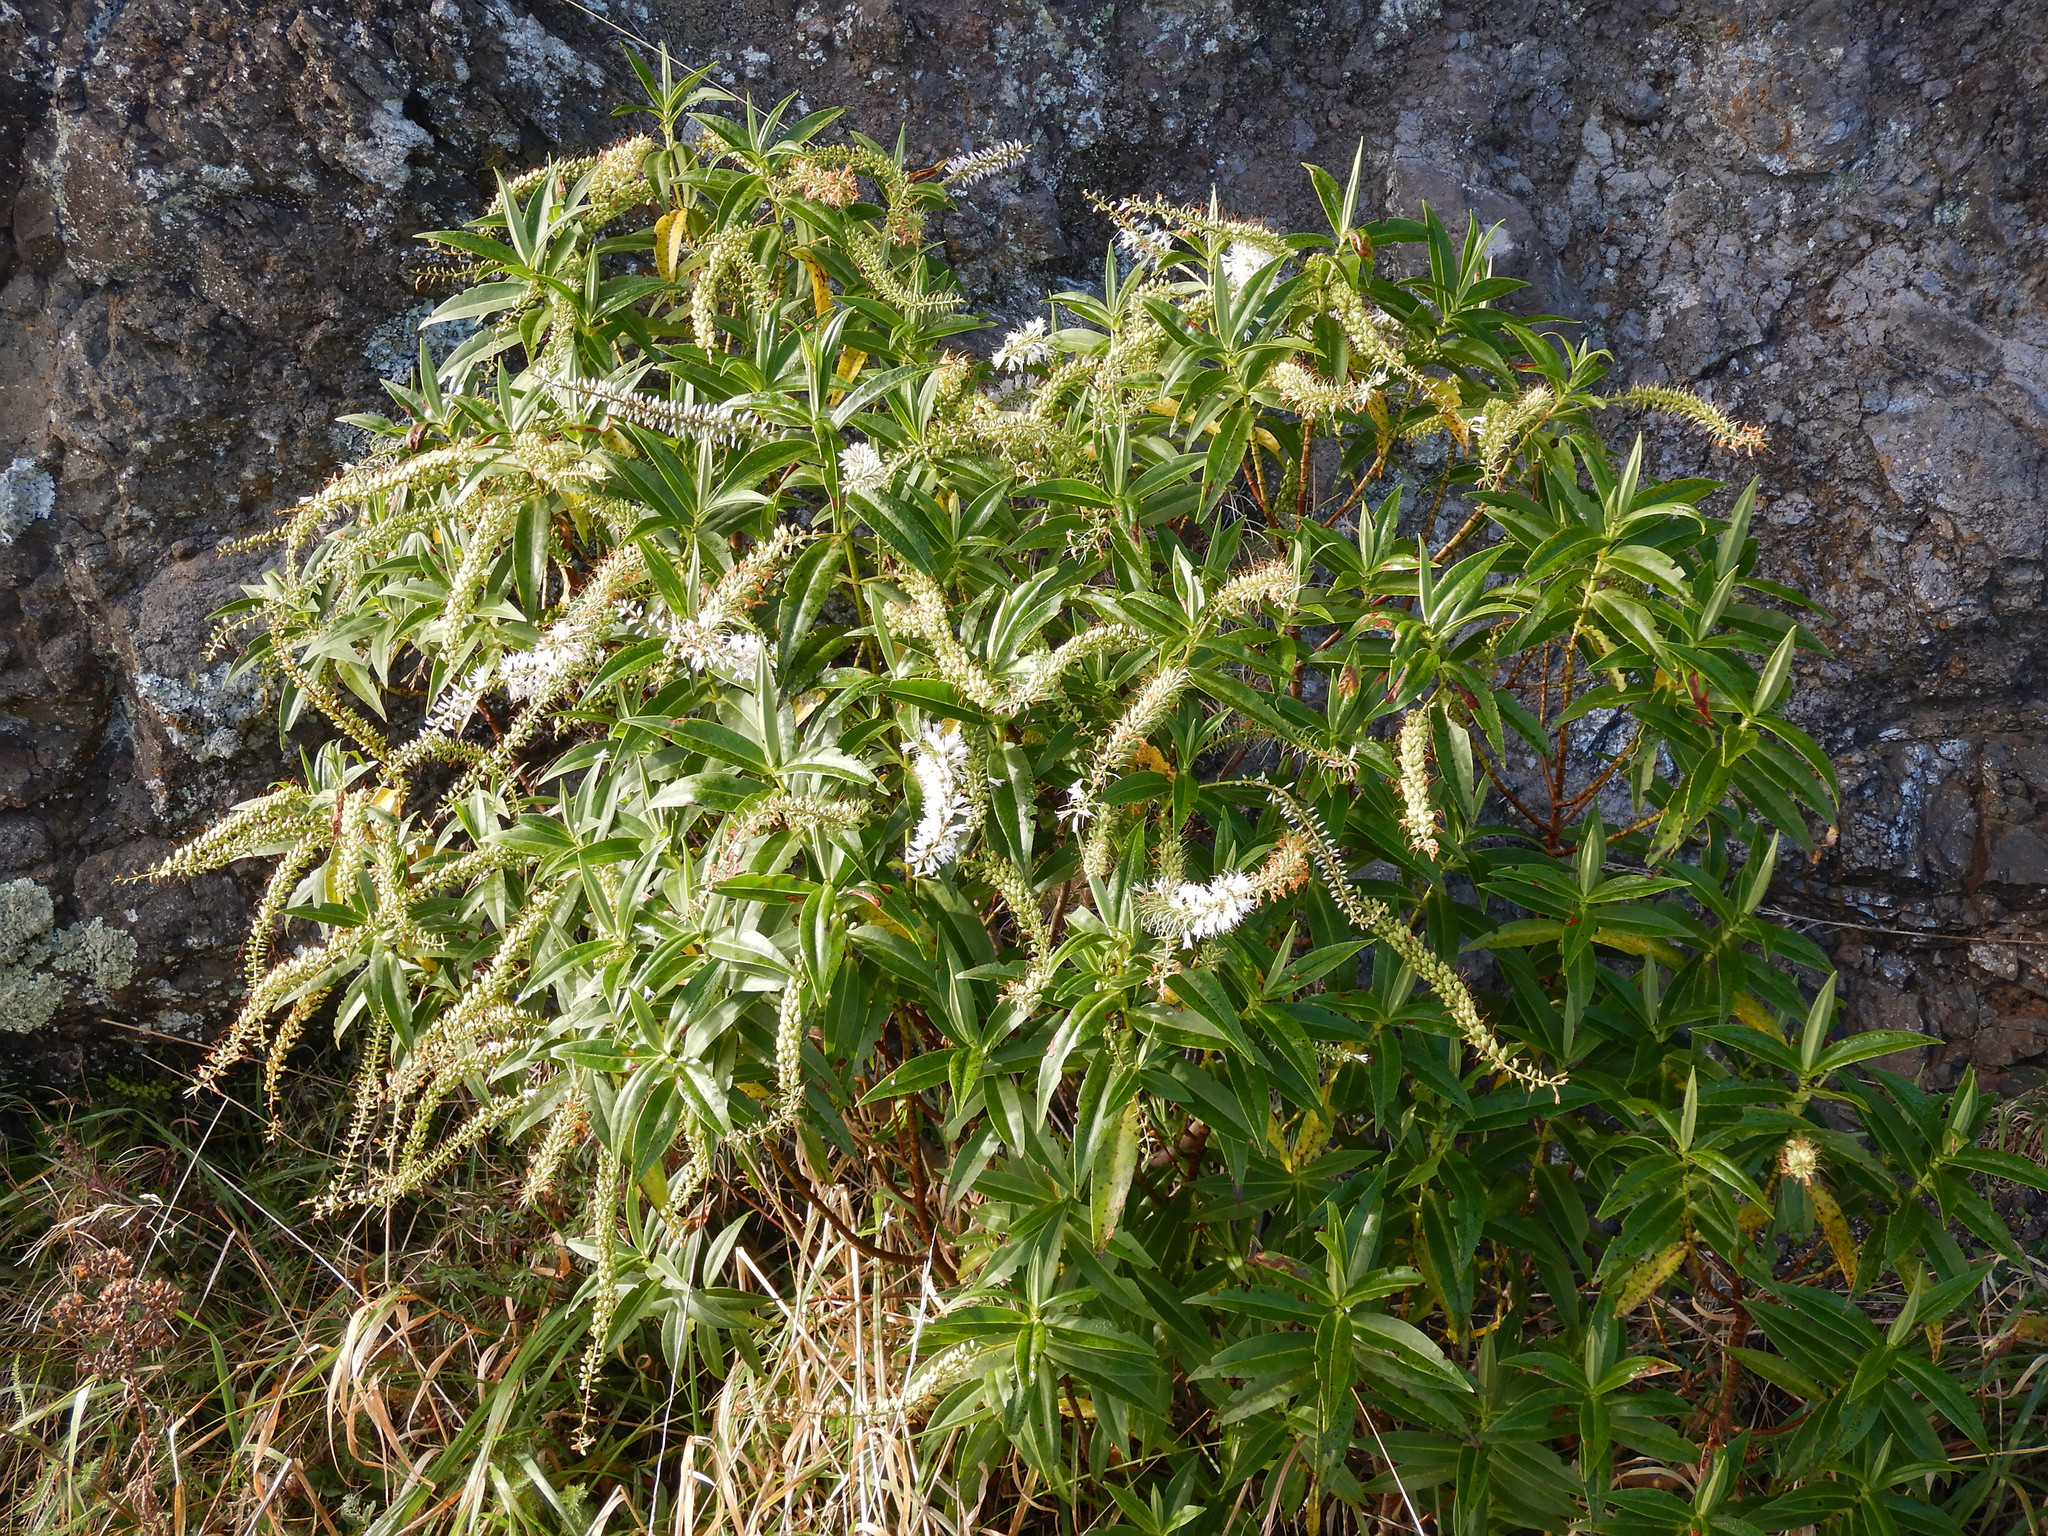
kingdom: Plantae
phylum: Tracheophyta
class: Magnoliopsida
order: Lamiales
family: Plantaginaceae
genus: Veronica
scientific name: Veronica salicifolia
